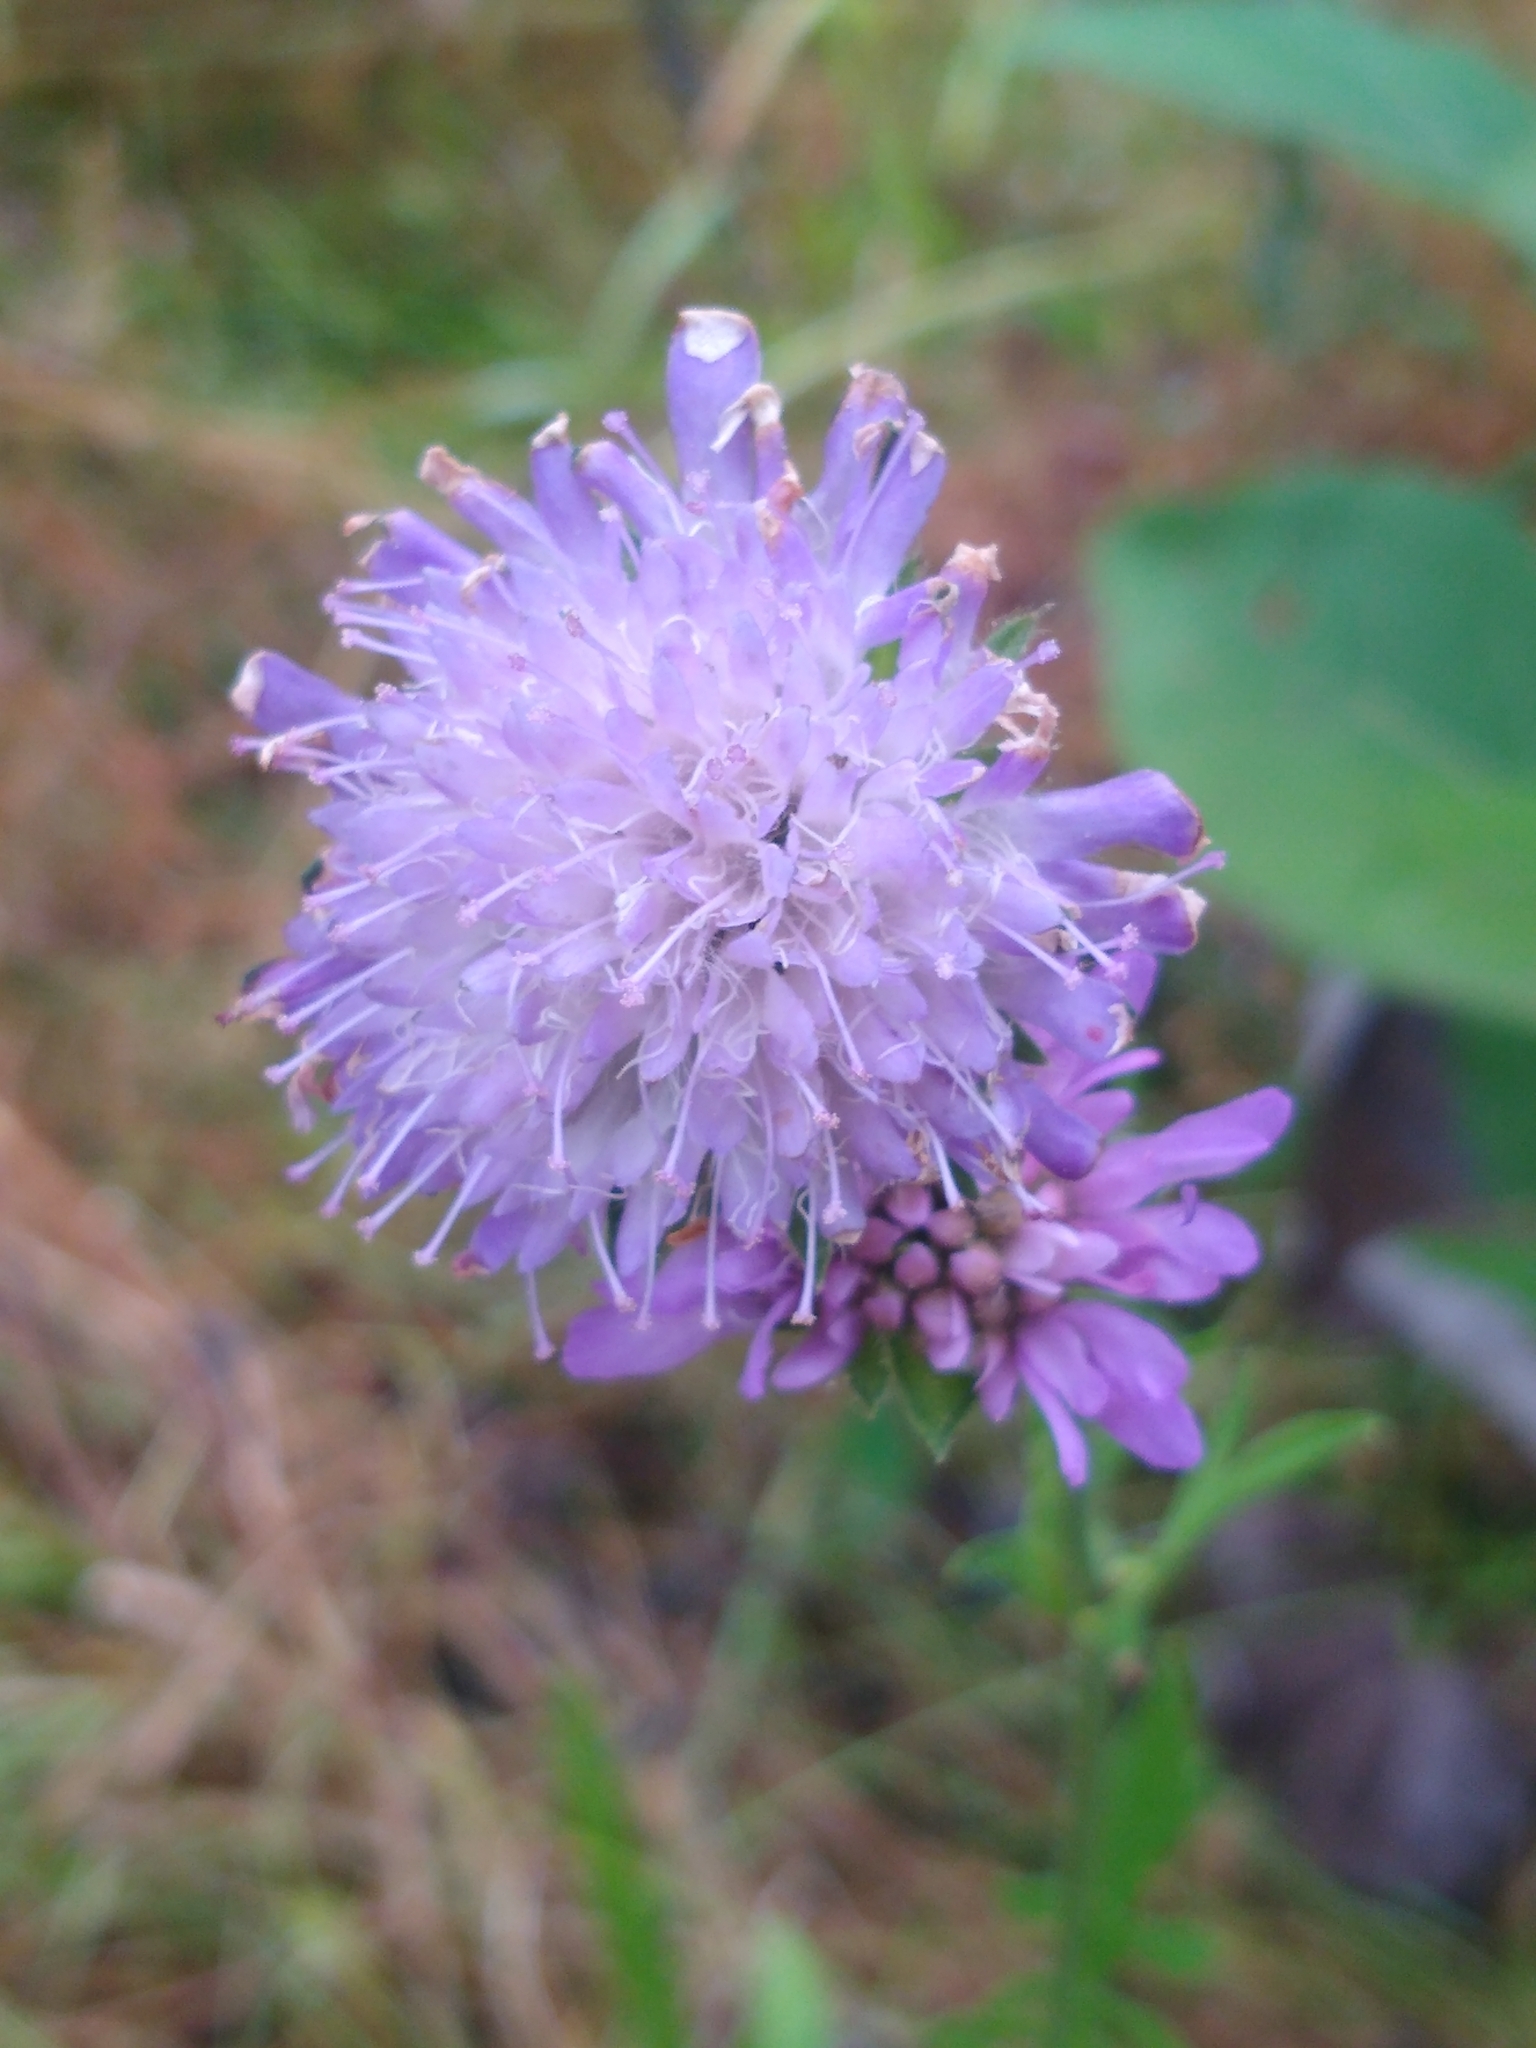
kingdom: Plantae
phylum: Tracheophyta
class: Magnoliopsida
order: Dipsacales
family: Caprifoliaceae
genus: Knautia
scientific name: Knautia arvensis
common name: Field scabiosa
